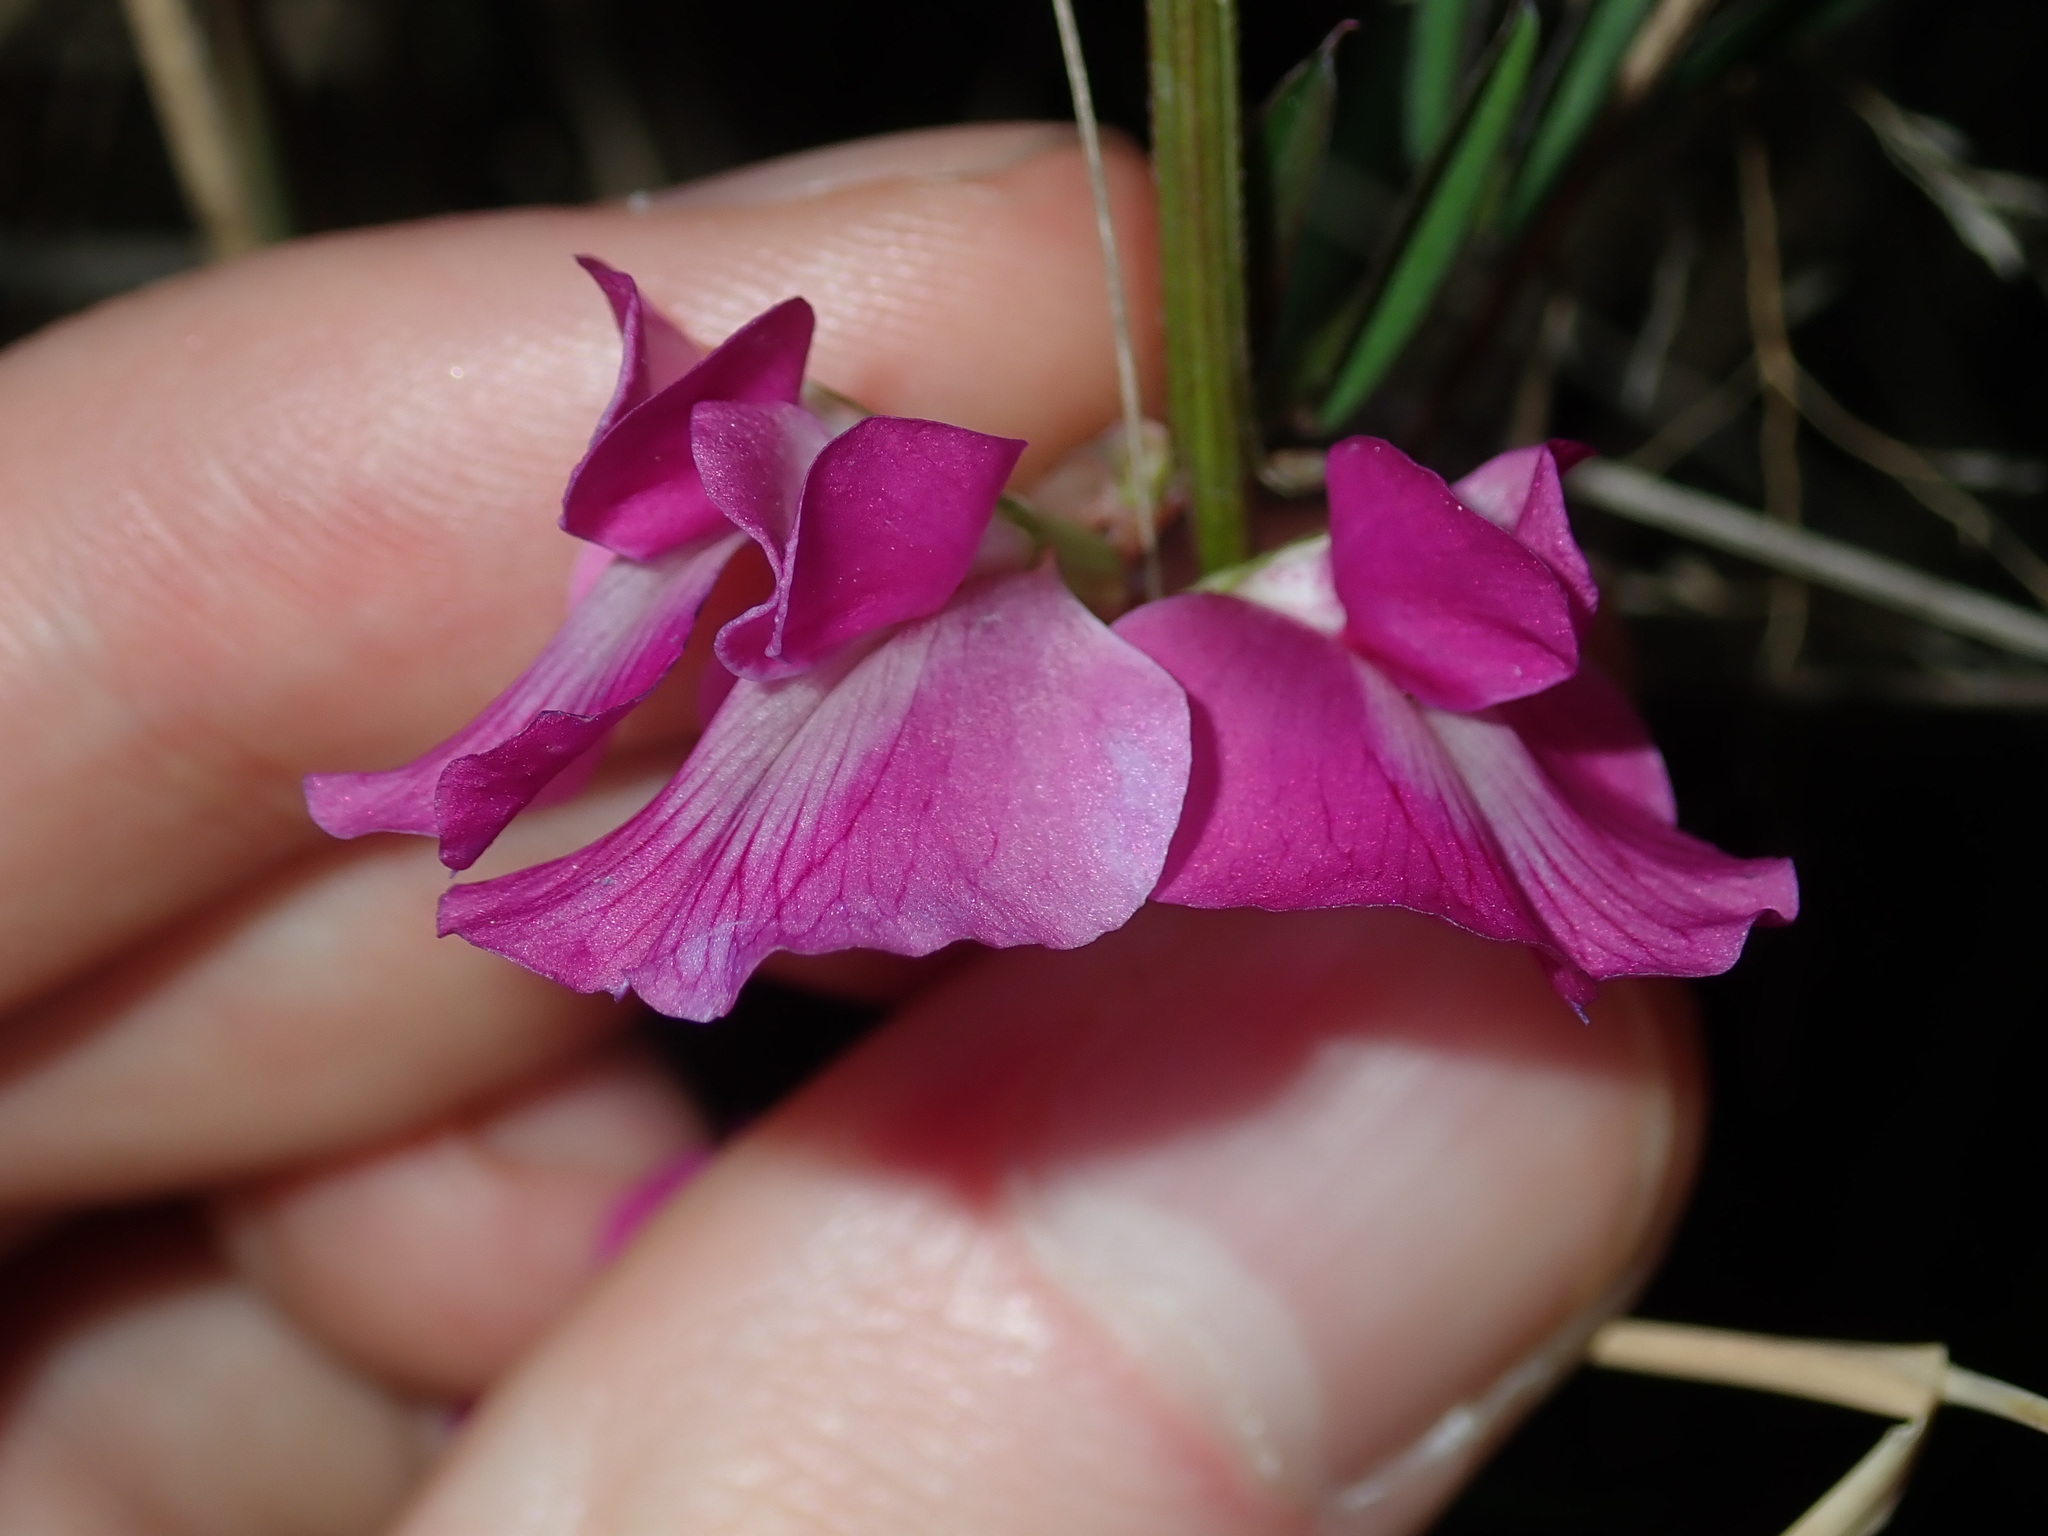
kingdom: Plantae
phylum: Tracheophyta
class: Magnoliopsida
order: Fabales
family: Fabaceae
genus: Vicia
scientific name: Vicia sativa
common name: Garden vetch
